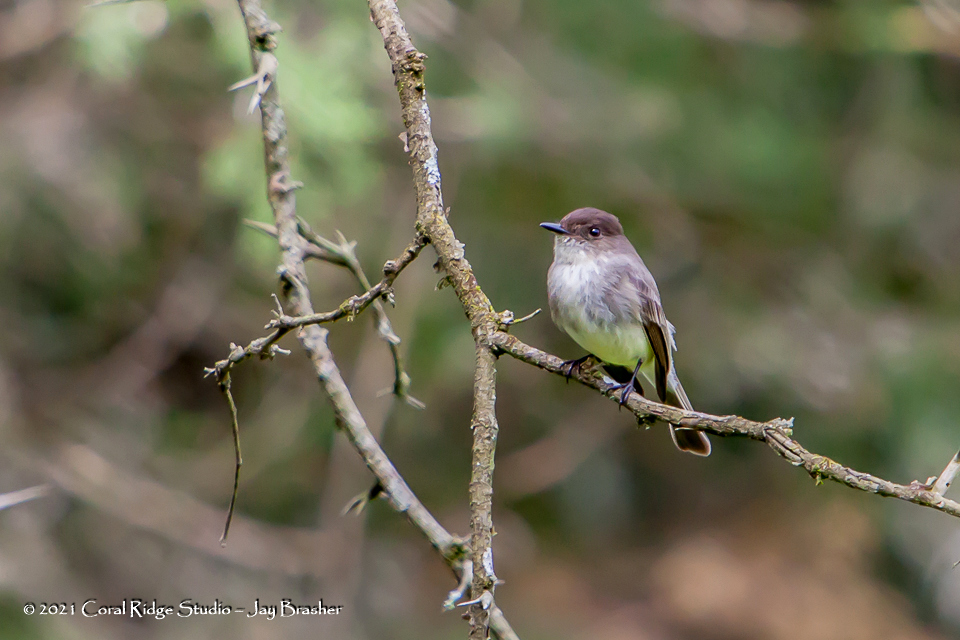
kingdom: Animalia
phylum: Chordata
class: Aves
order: Passeriformes
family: Tyrannidae
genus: Sayornis
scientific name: Sayornis phoebe
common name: Eastern phoebe
